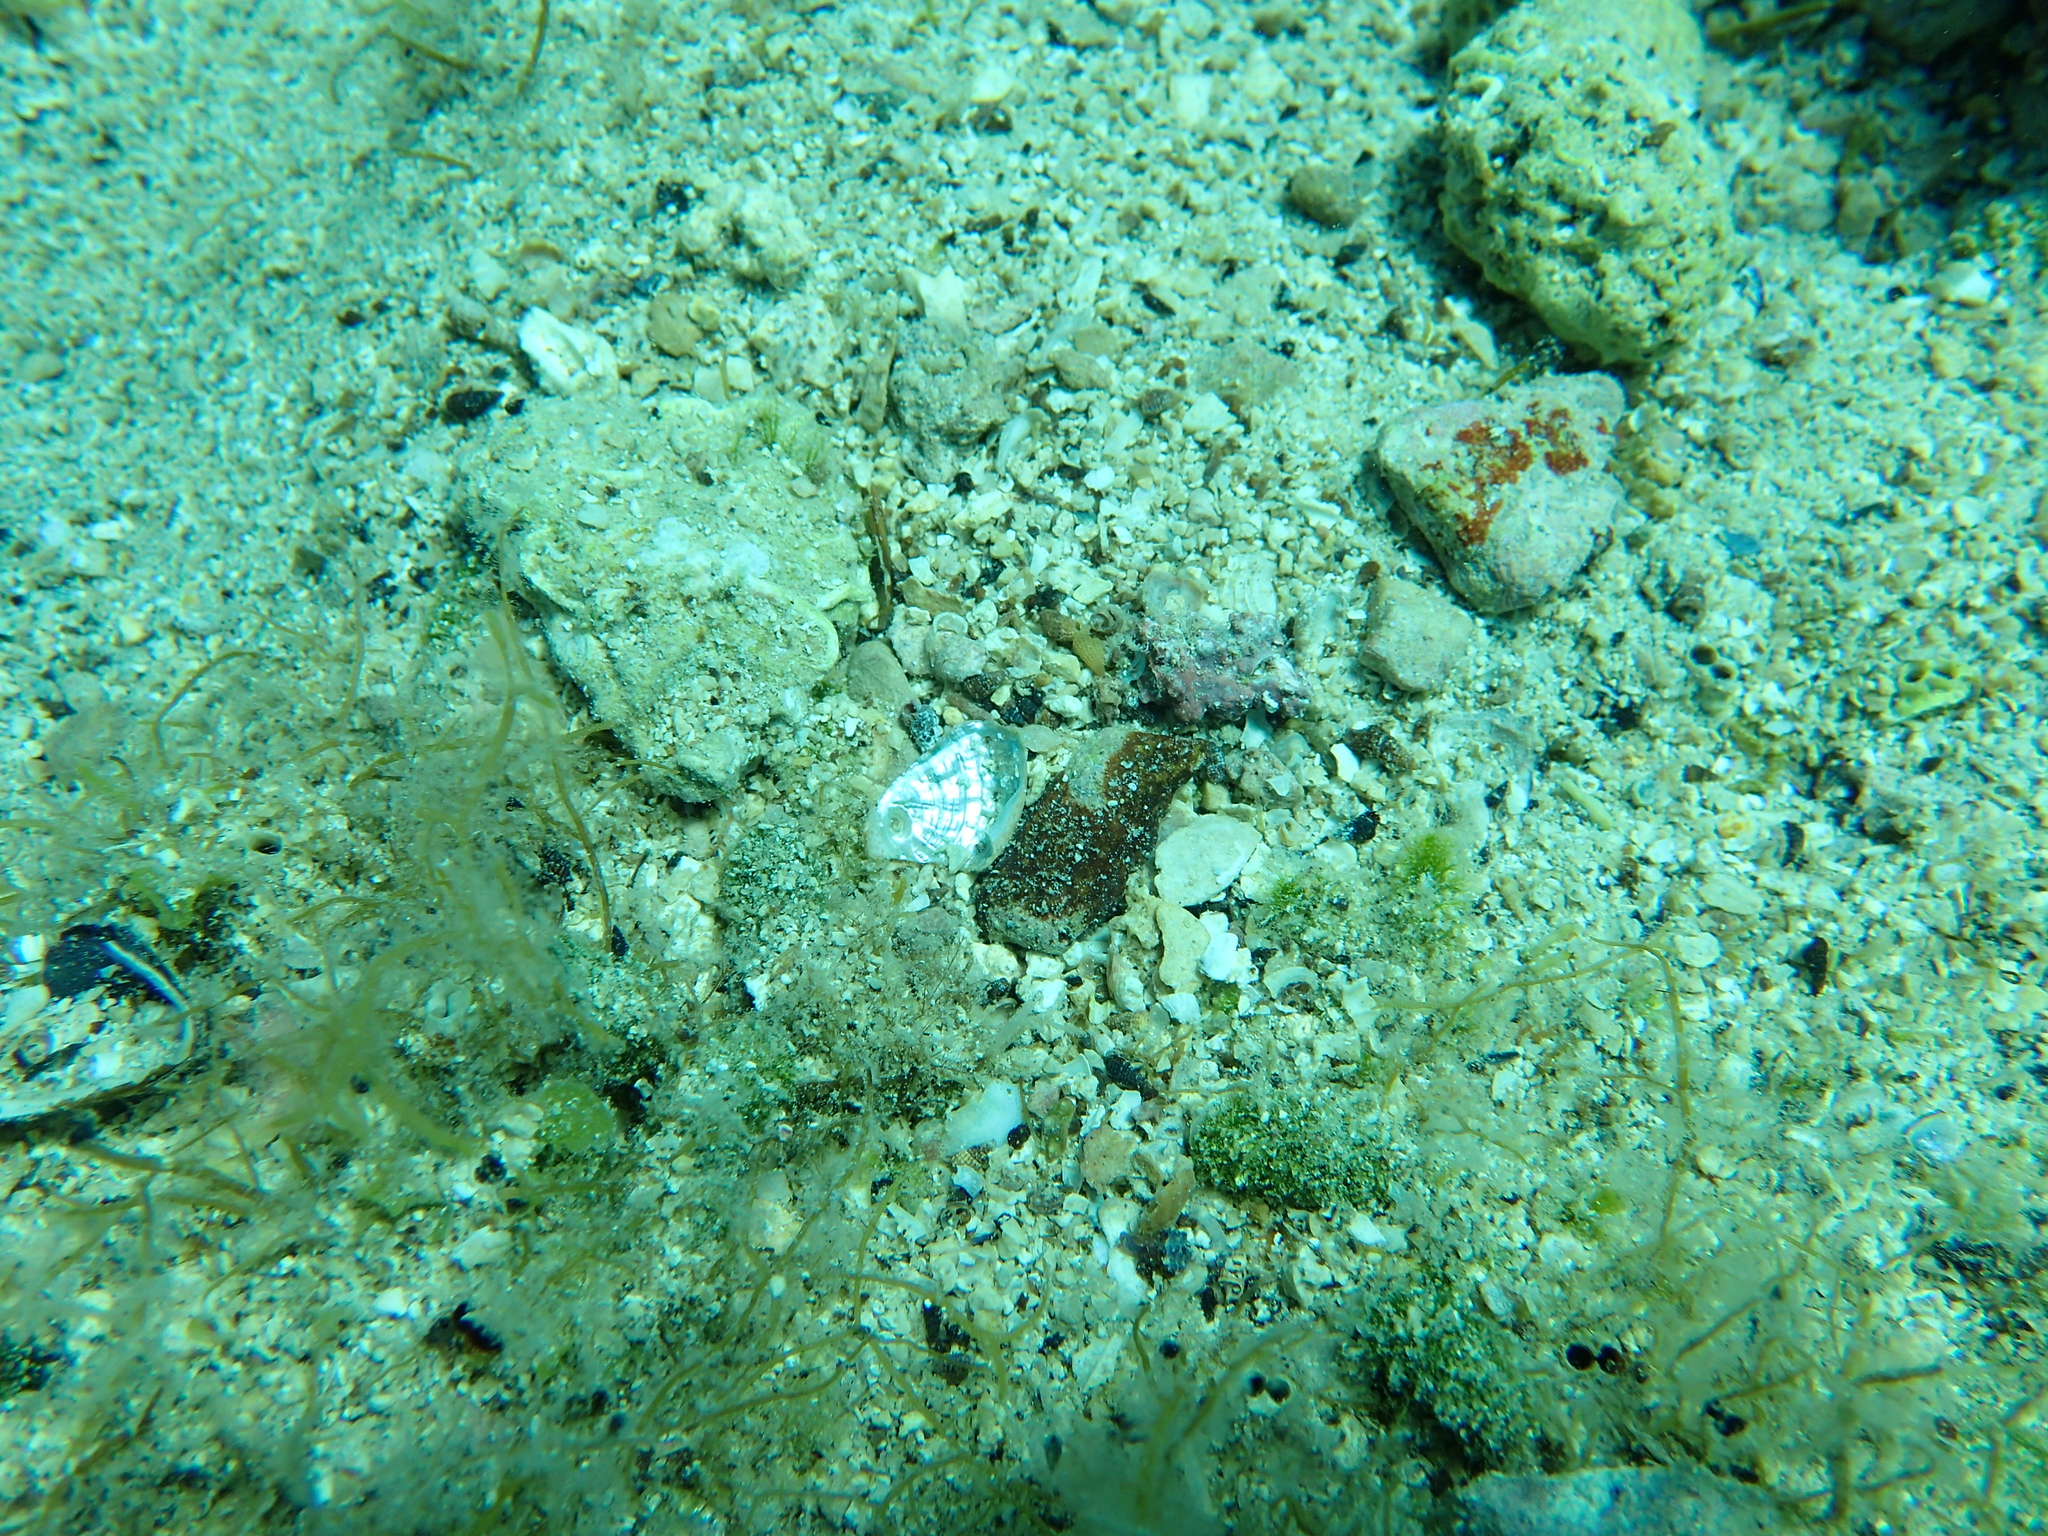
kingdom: Animalia
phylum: Mollusca
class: Gastropoda
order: Lepetellida
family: Haliotidae
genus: Haliotis
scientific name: Haliotis tuberculata
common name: Green ormer
